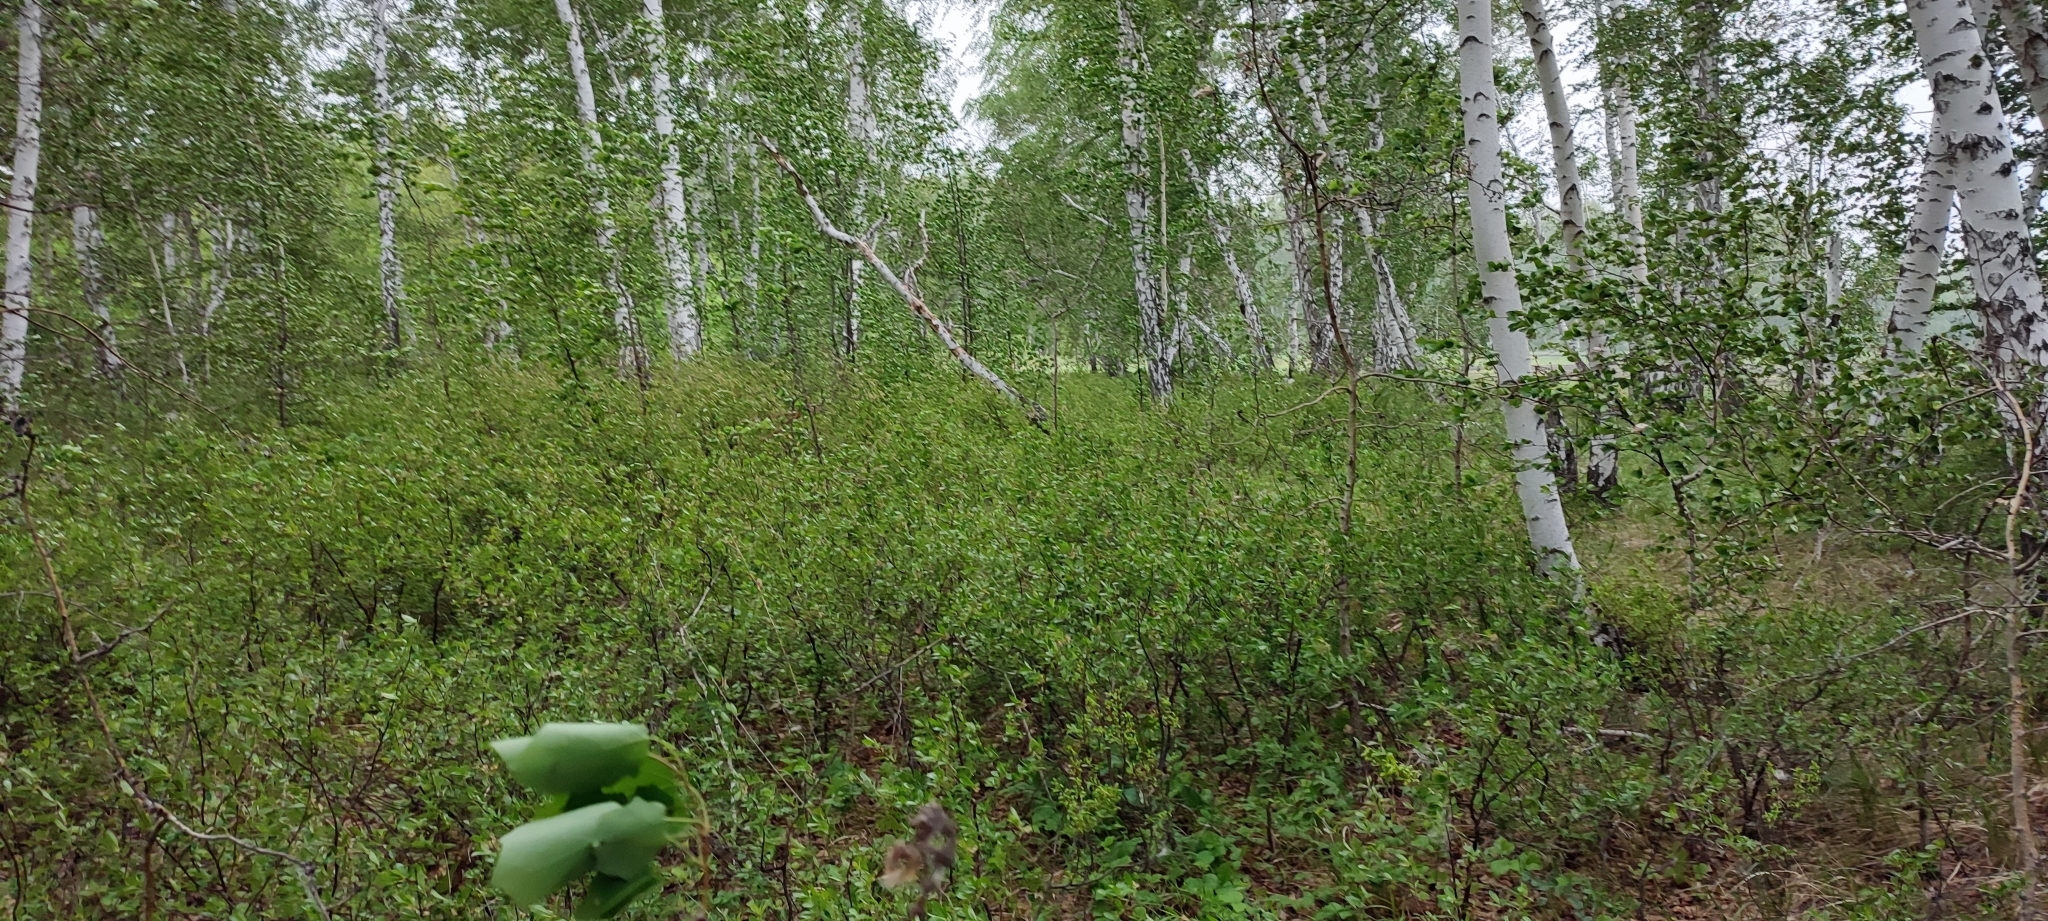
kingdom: Plantae
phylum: Tracheophyta
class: Magnoliopsida
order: Rosales
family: Rosaceae
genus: Prunus
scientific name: Prunus fruticosa
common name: European dwarf cherry
